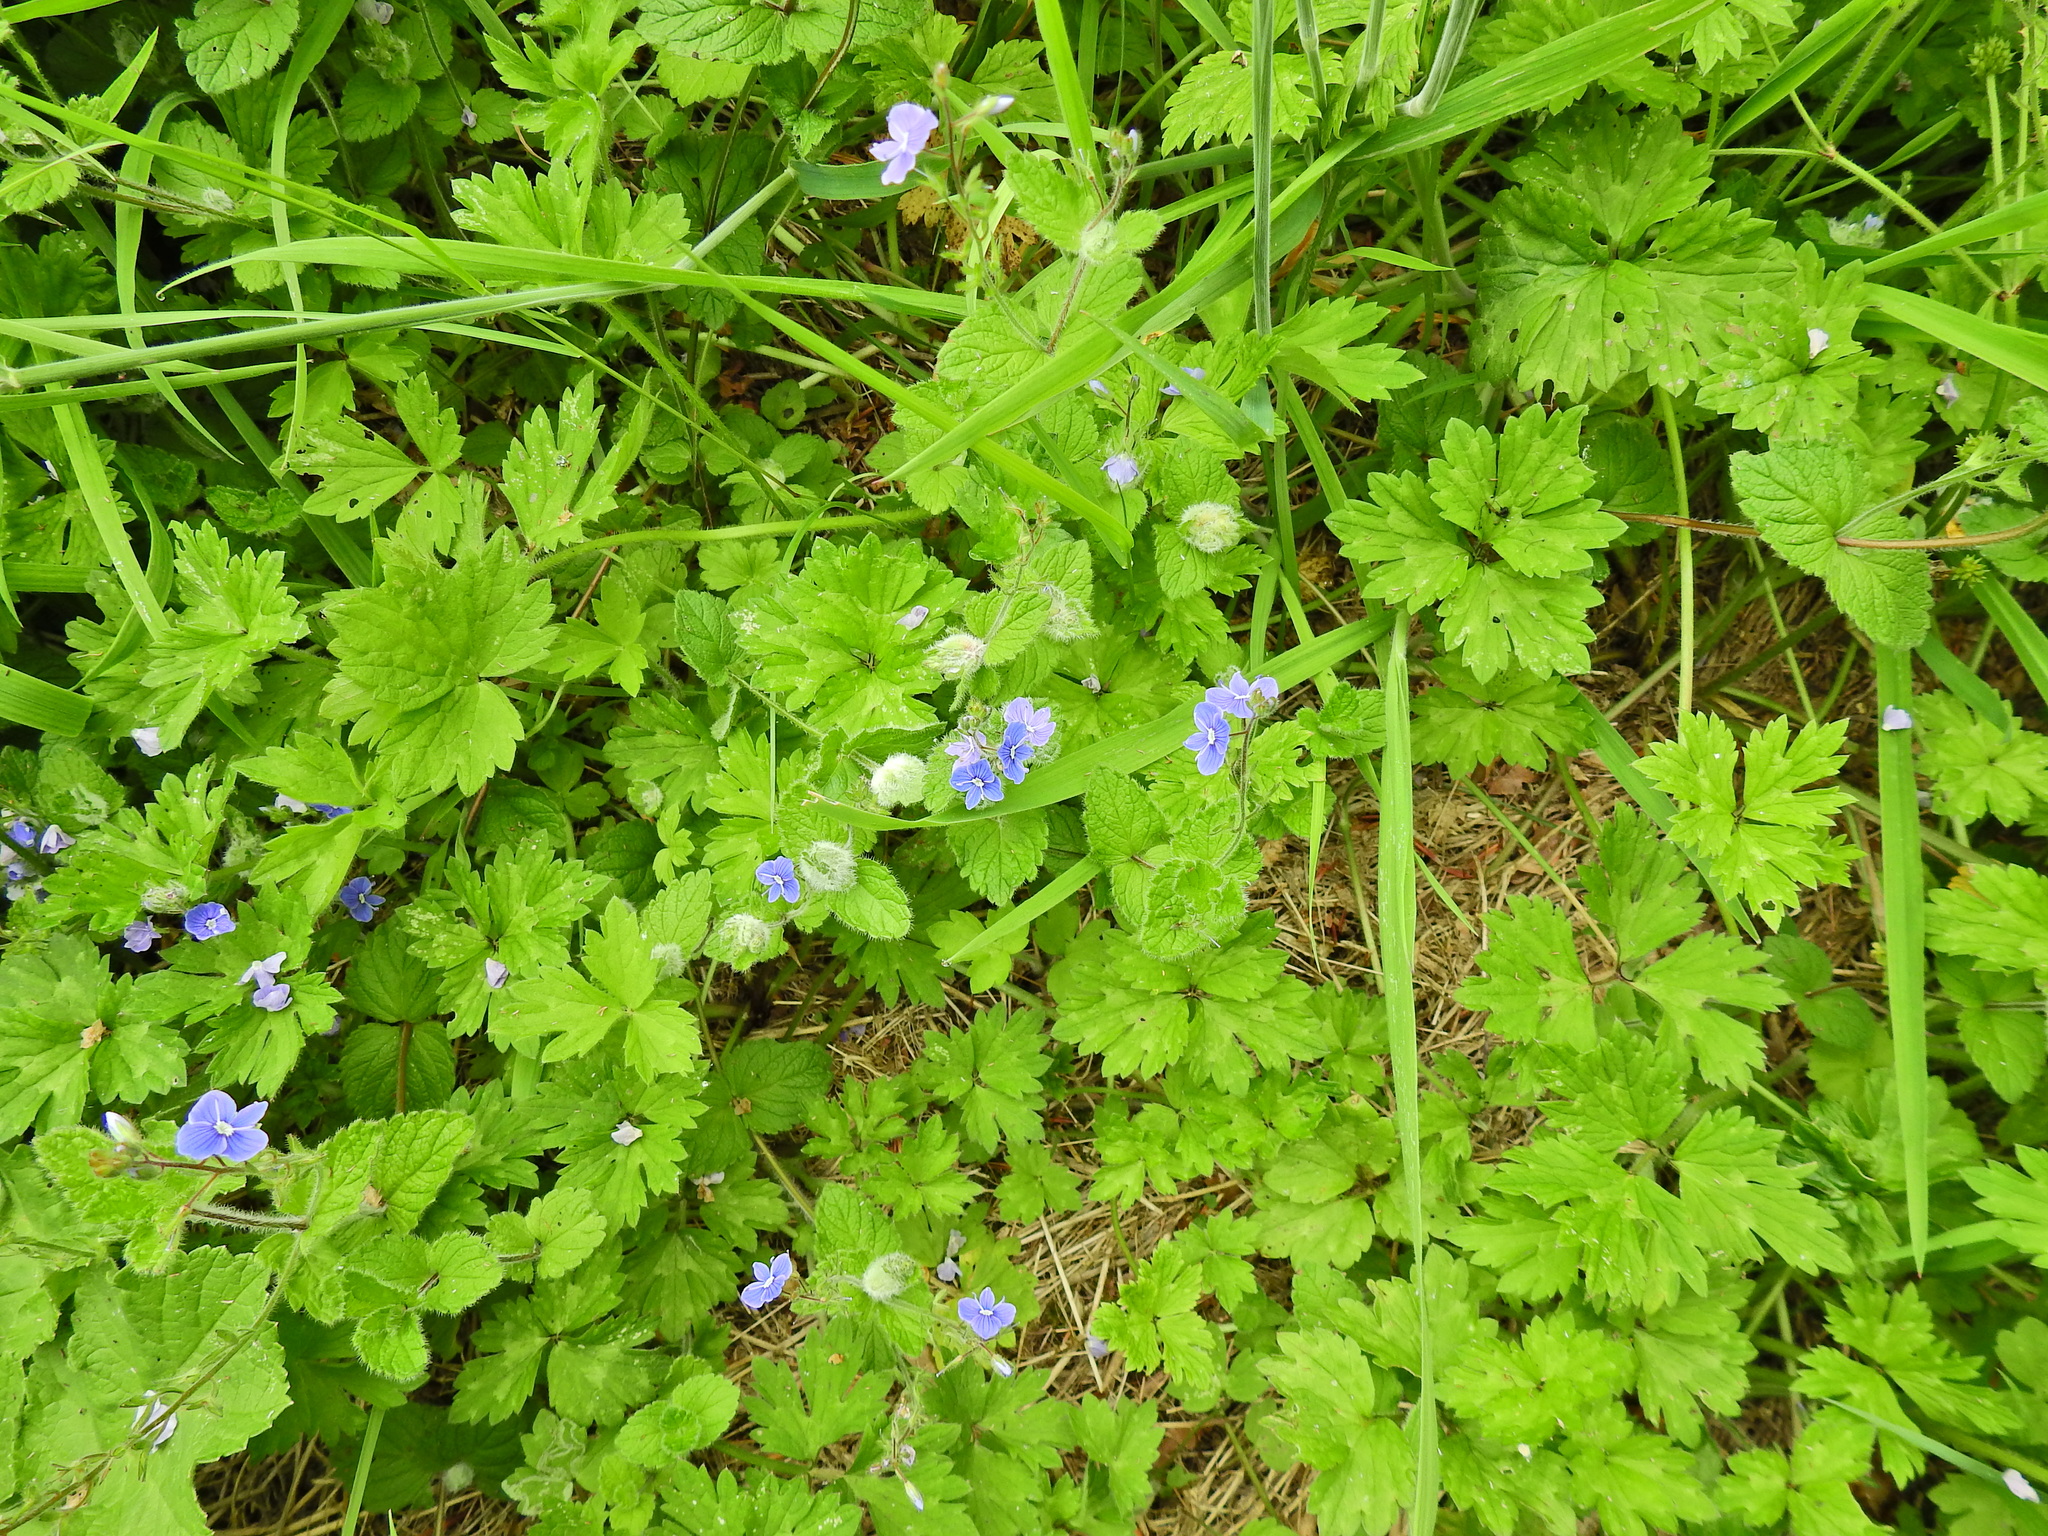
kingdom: Plantae
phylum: Tracheophyta
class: Magnoliopsida
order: Lamiales
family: Plantaginaceae
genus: Veronica
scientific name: Veronica chamaedrys
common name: Germander speedwell
